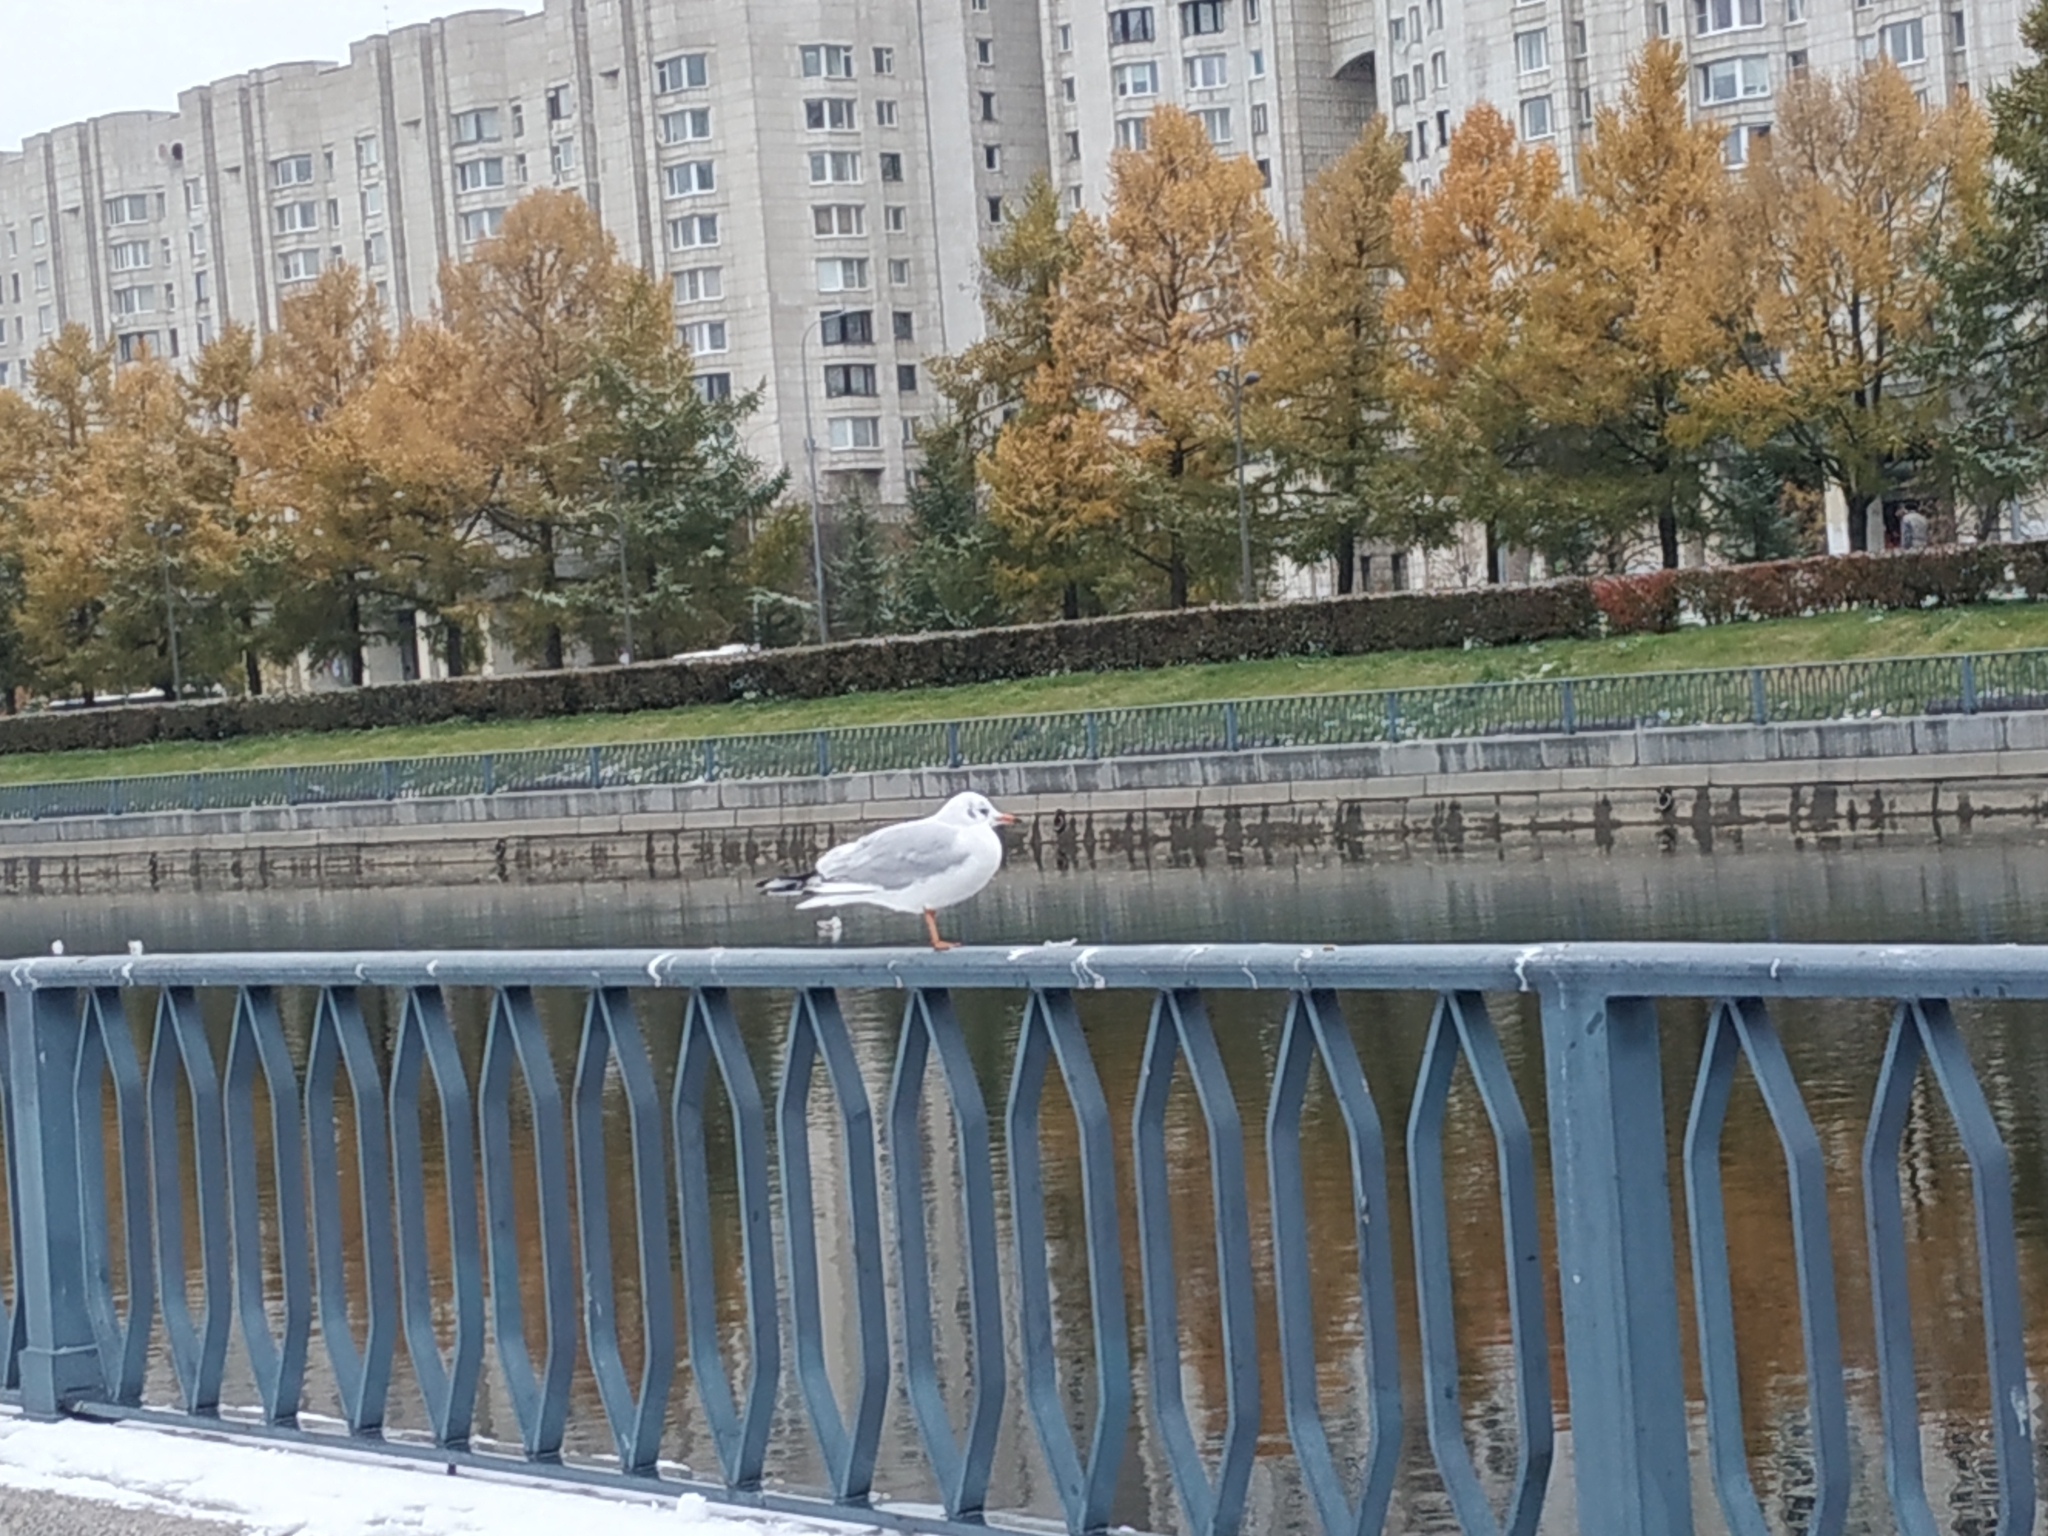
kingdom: Animalia
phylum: Chordata
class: Aves
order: Charadriiformes
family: Laridae
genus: Chroicocephalus
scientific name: Chroicocephalus ridibundus
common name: Black-headed gull
